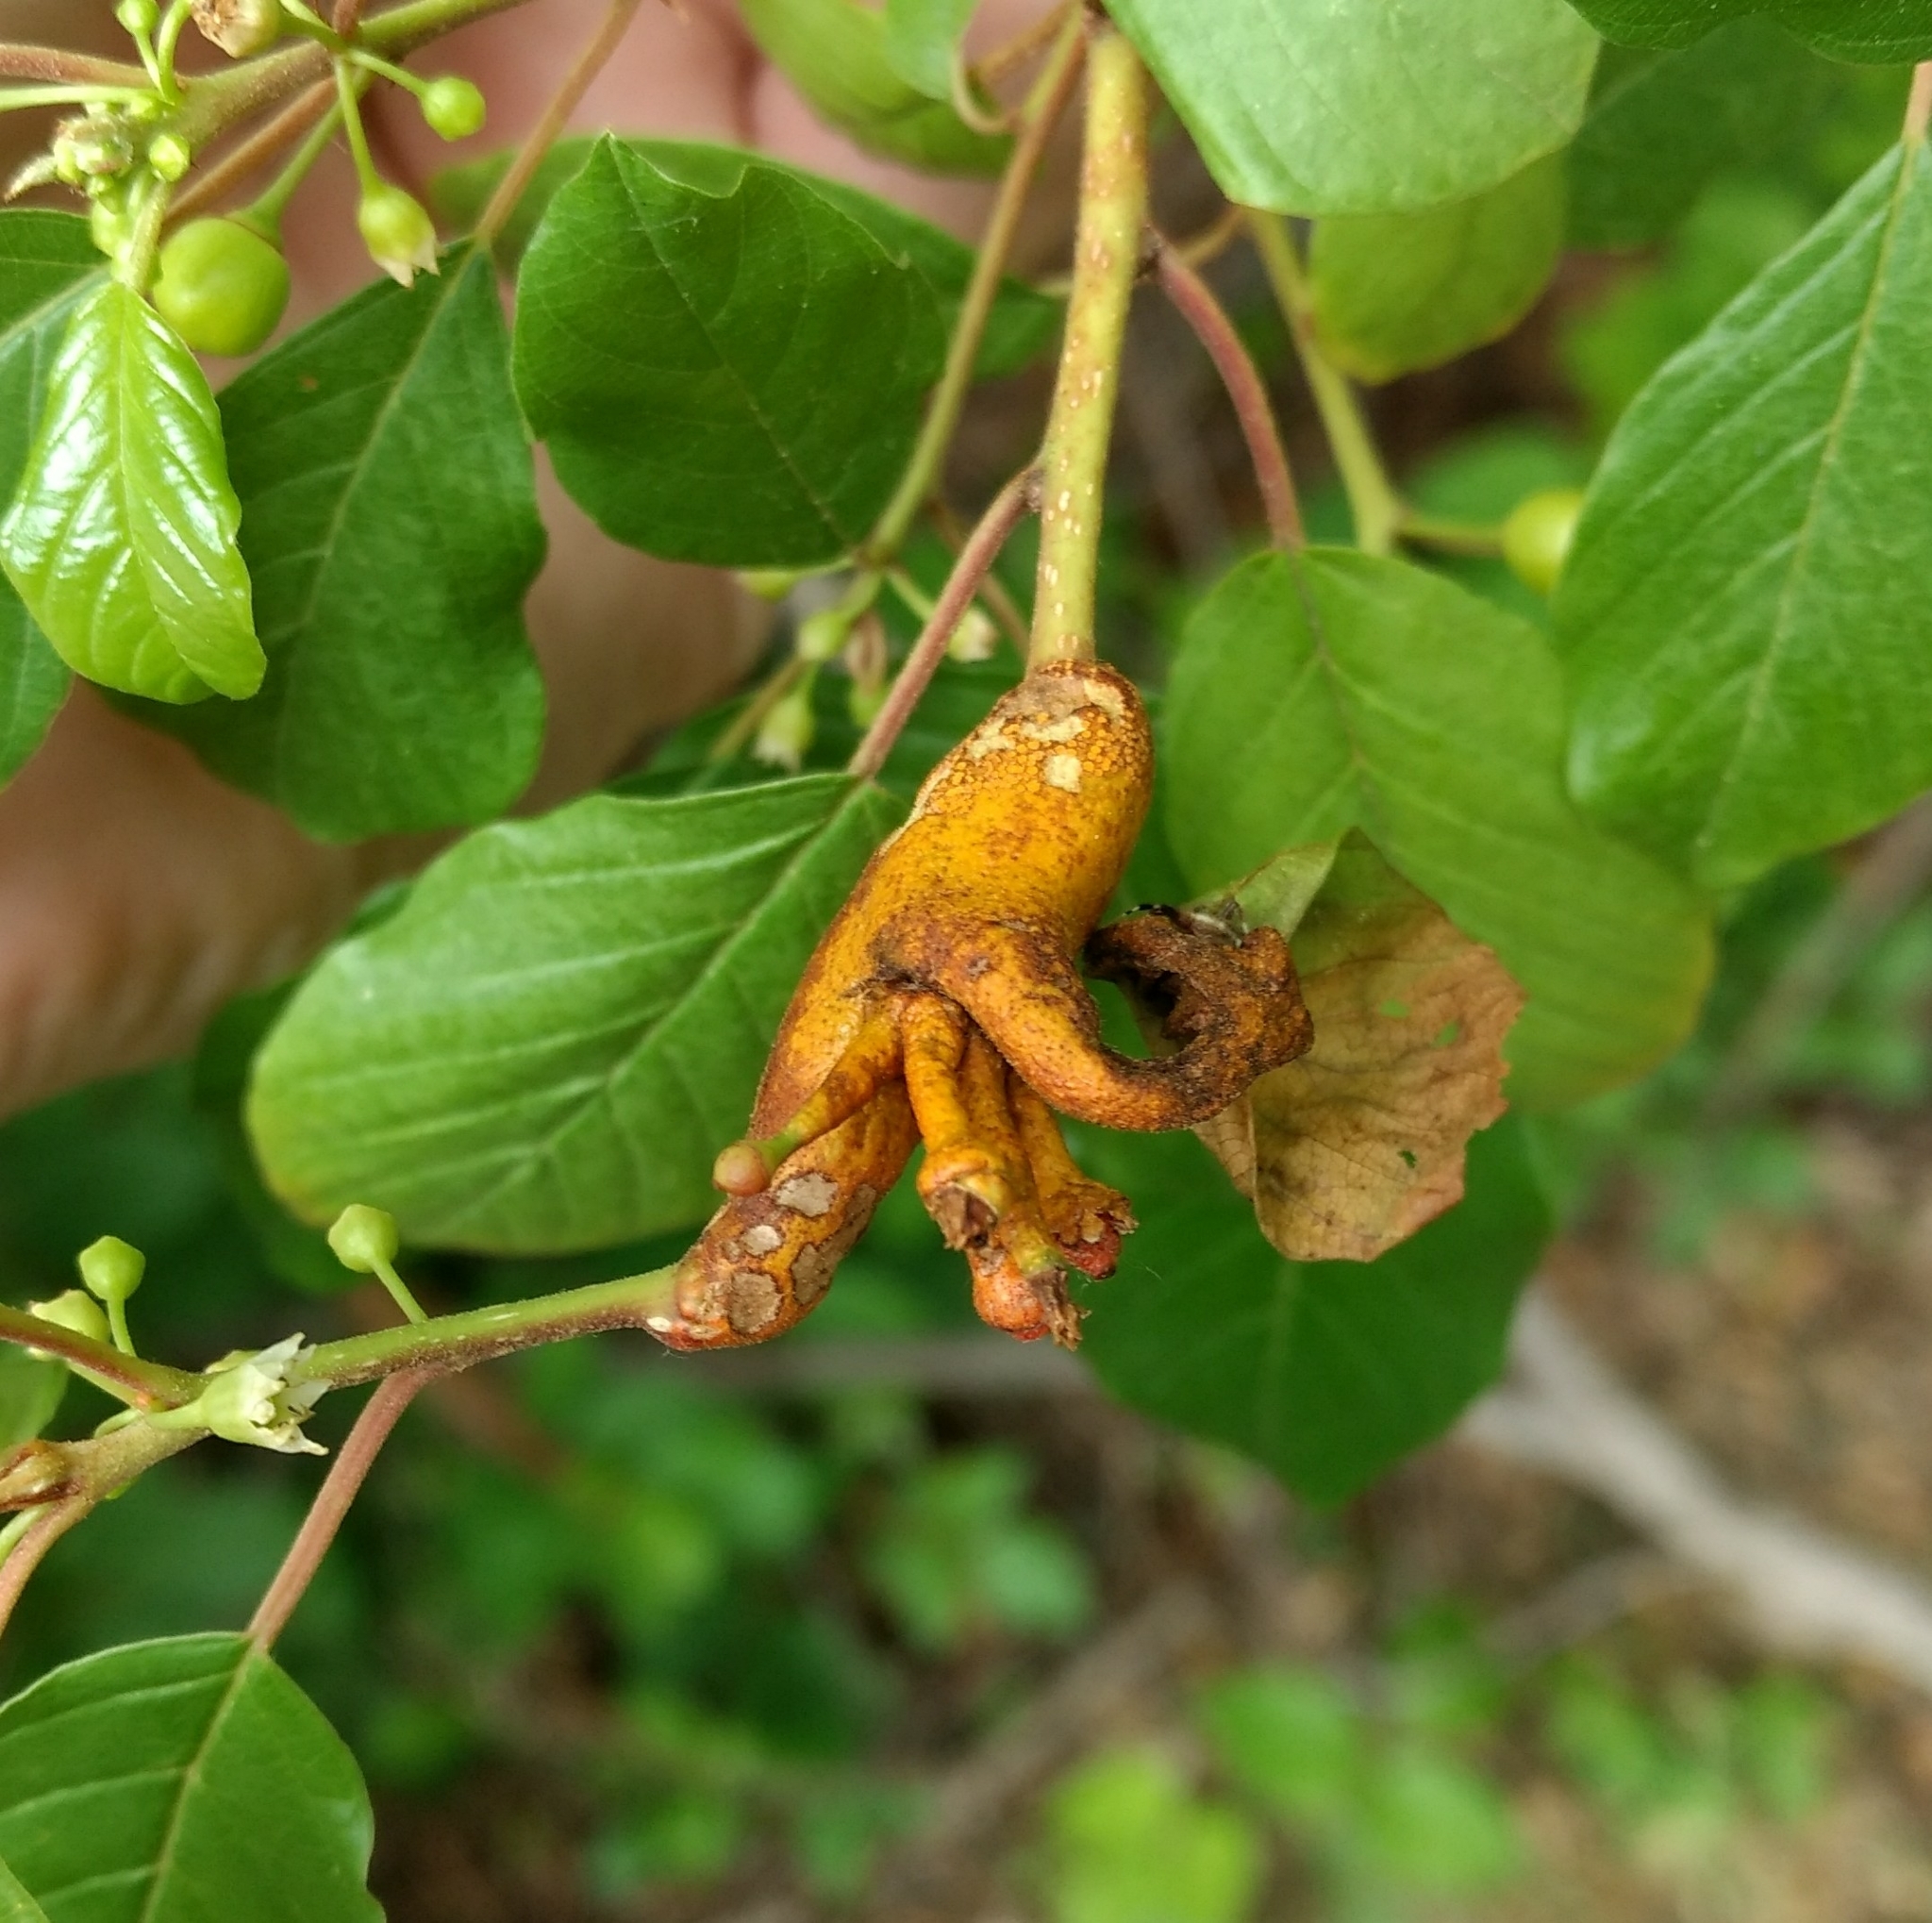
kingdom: Fungi
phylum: Basidiomycota
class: Pucciniomycetes
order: Pucciniales
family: Pucciniaceae
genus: Puccinia
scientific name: Puccinia coronata
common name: Crown rust
